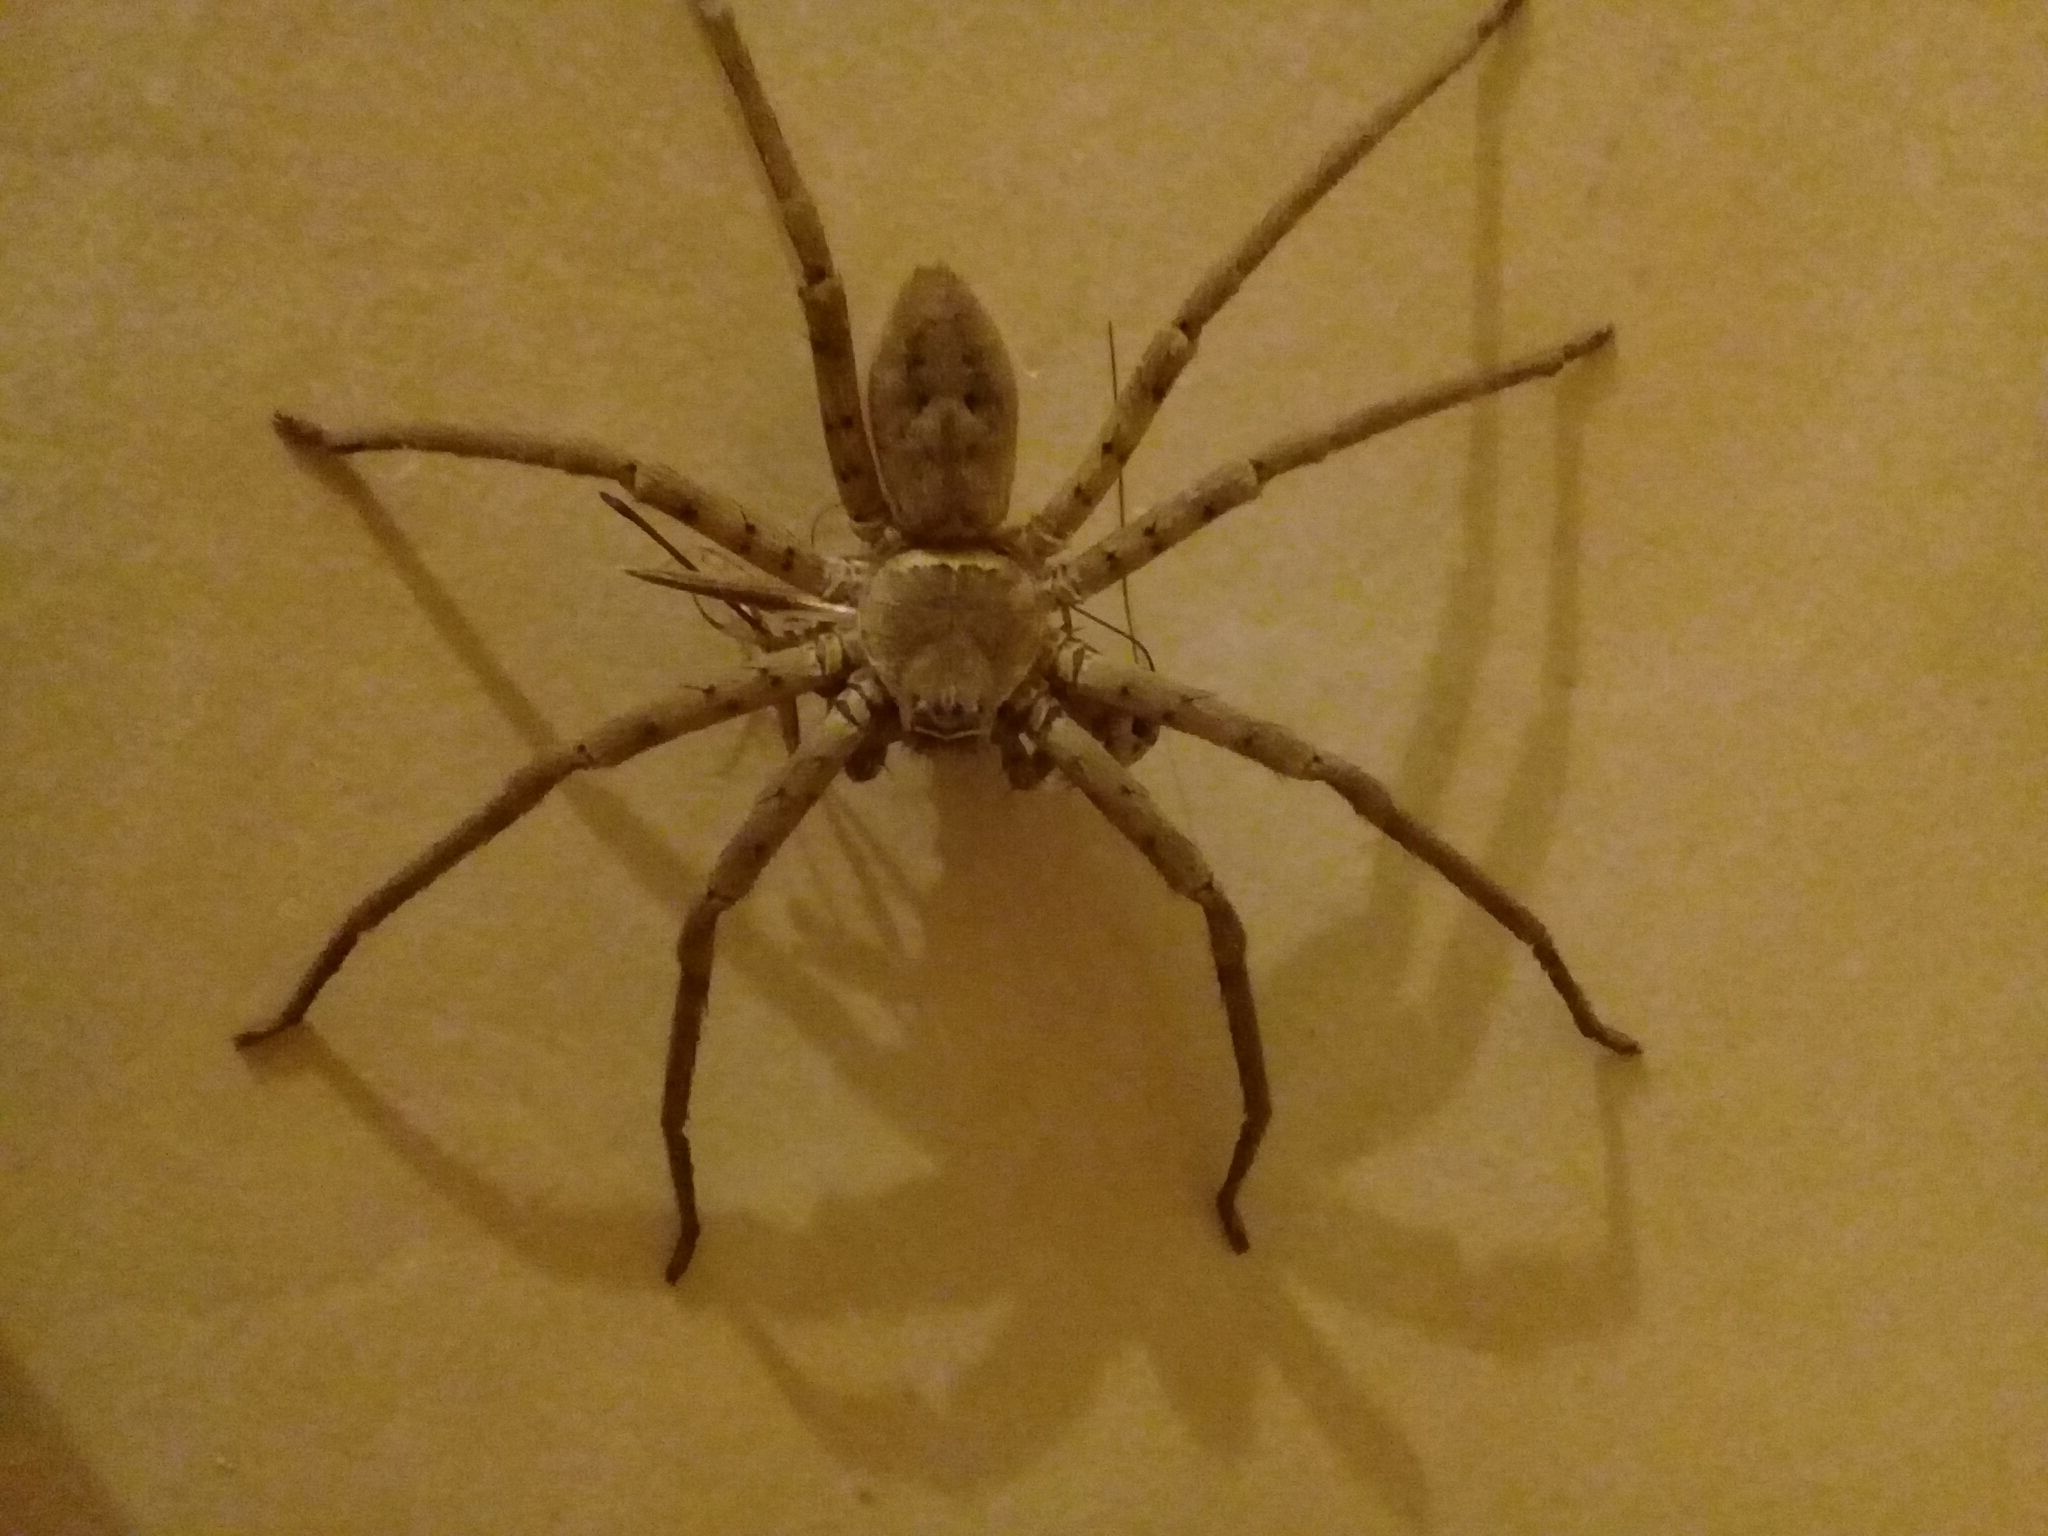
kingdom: Animalia
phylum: Arthropoda
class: Arachnida
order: Araneae
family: Sparassidae
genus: Heteropoda
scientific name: Heteropoda venatoria
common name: Huntsman spider
